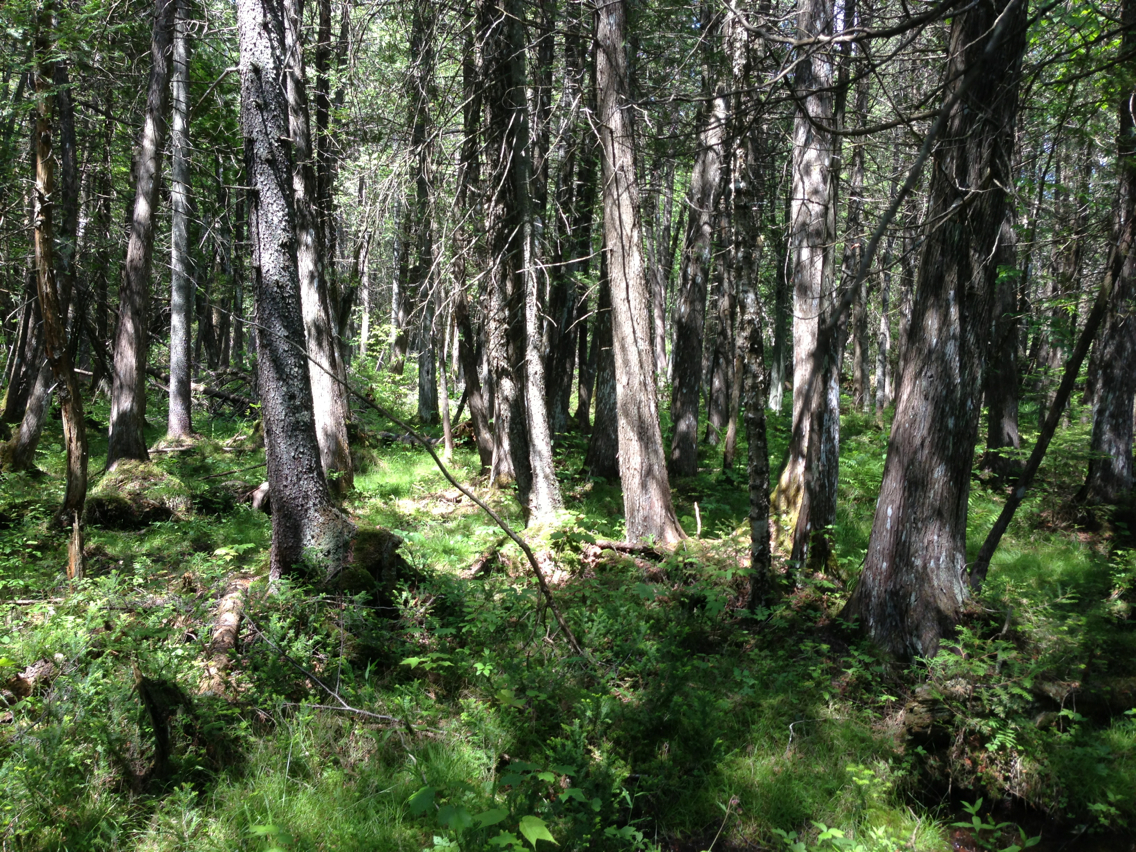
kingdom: Plantae
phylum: Tracheophyta
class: Pinopsida
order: Pinales
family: Cupressaceae
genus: Thuja
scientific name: Thuja occidentalis
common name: Northern white-cedar
